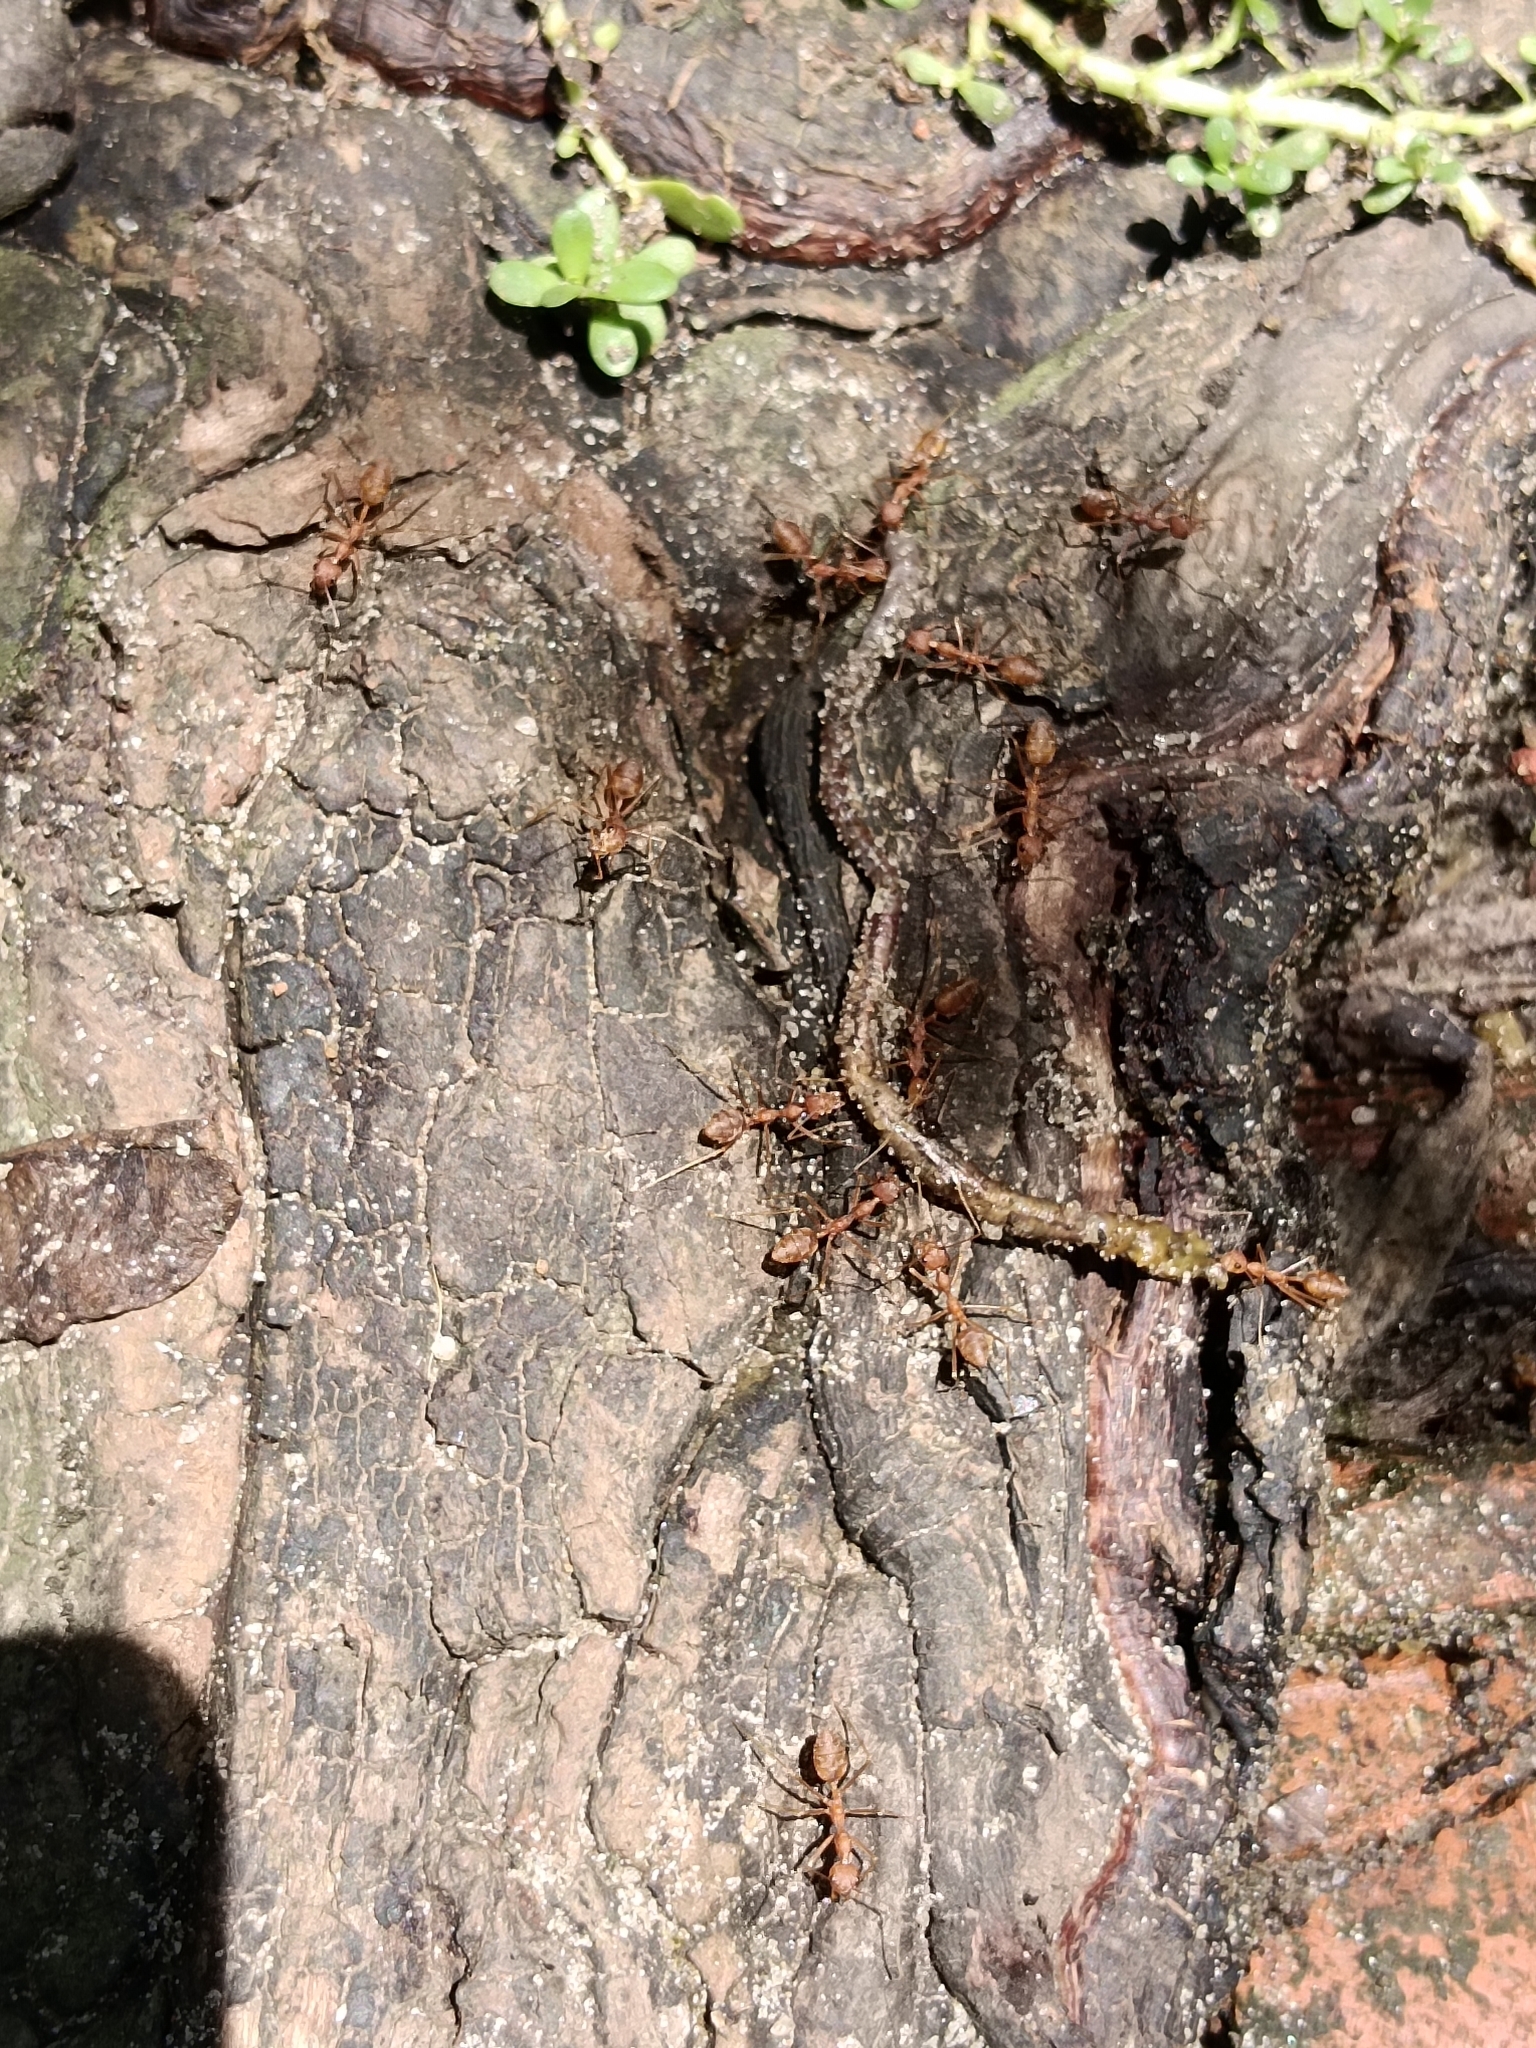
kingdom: Animalia
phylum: Arthropoda
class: Insecta
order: Hymenoptera
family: Formicidae
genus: Oecophylla
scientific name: Oecophylla smaragdina
